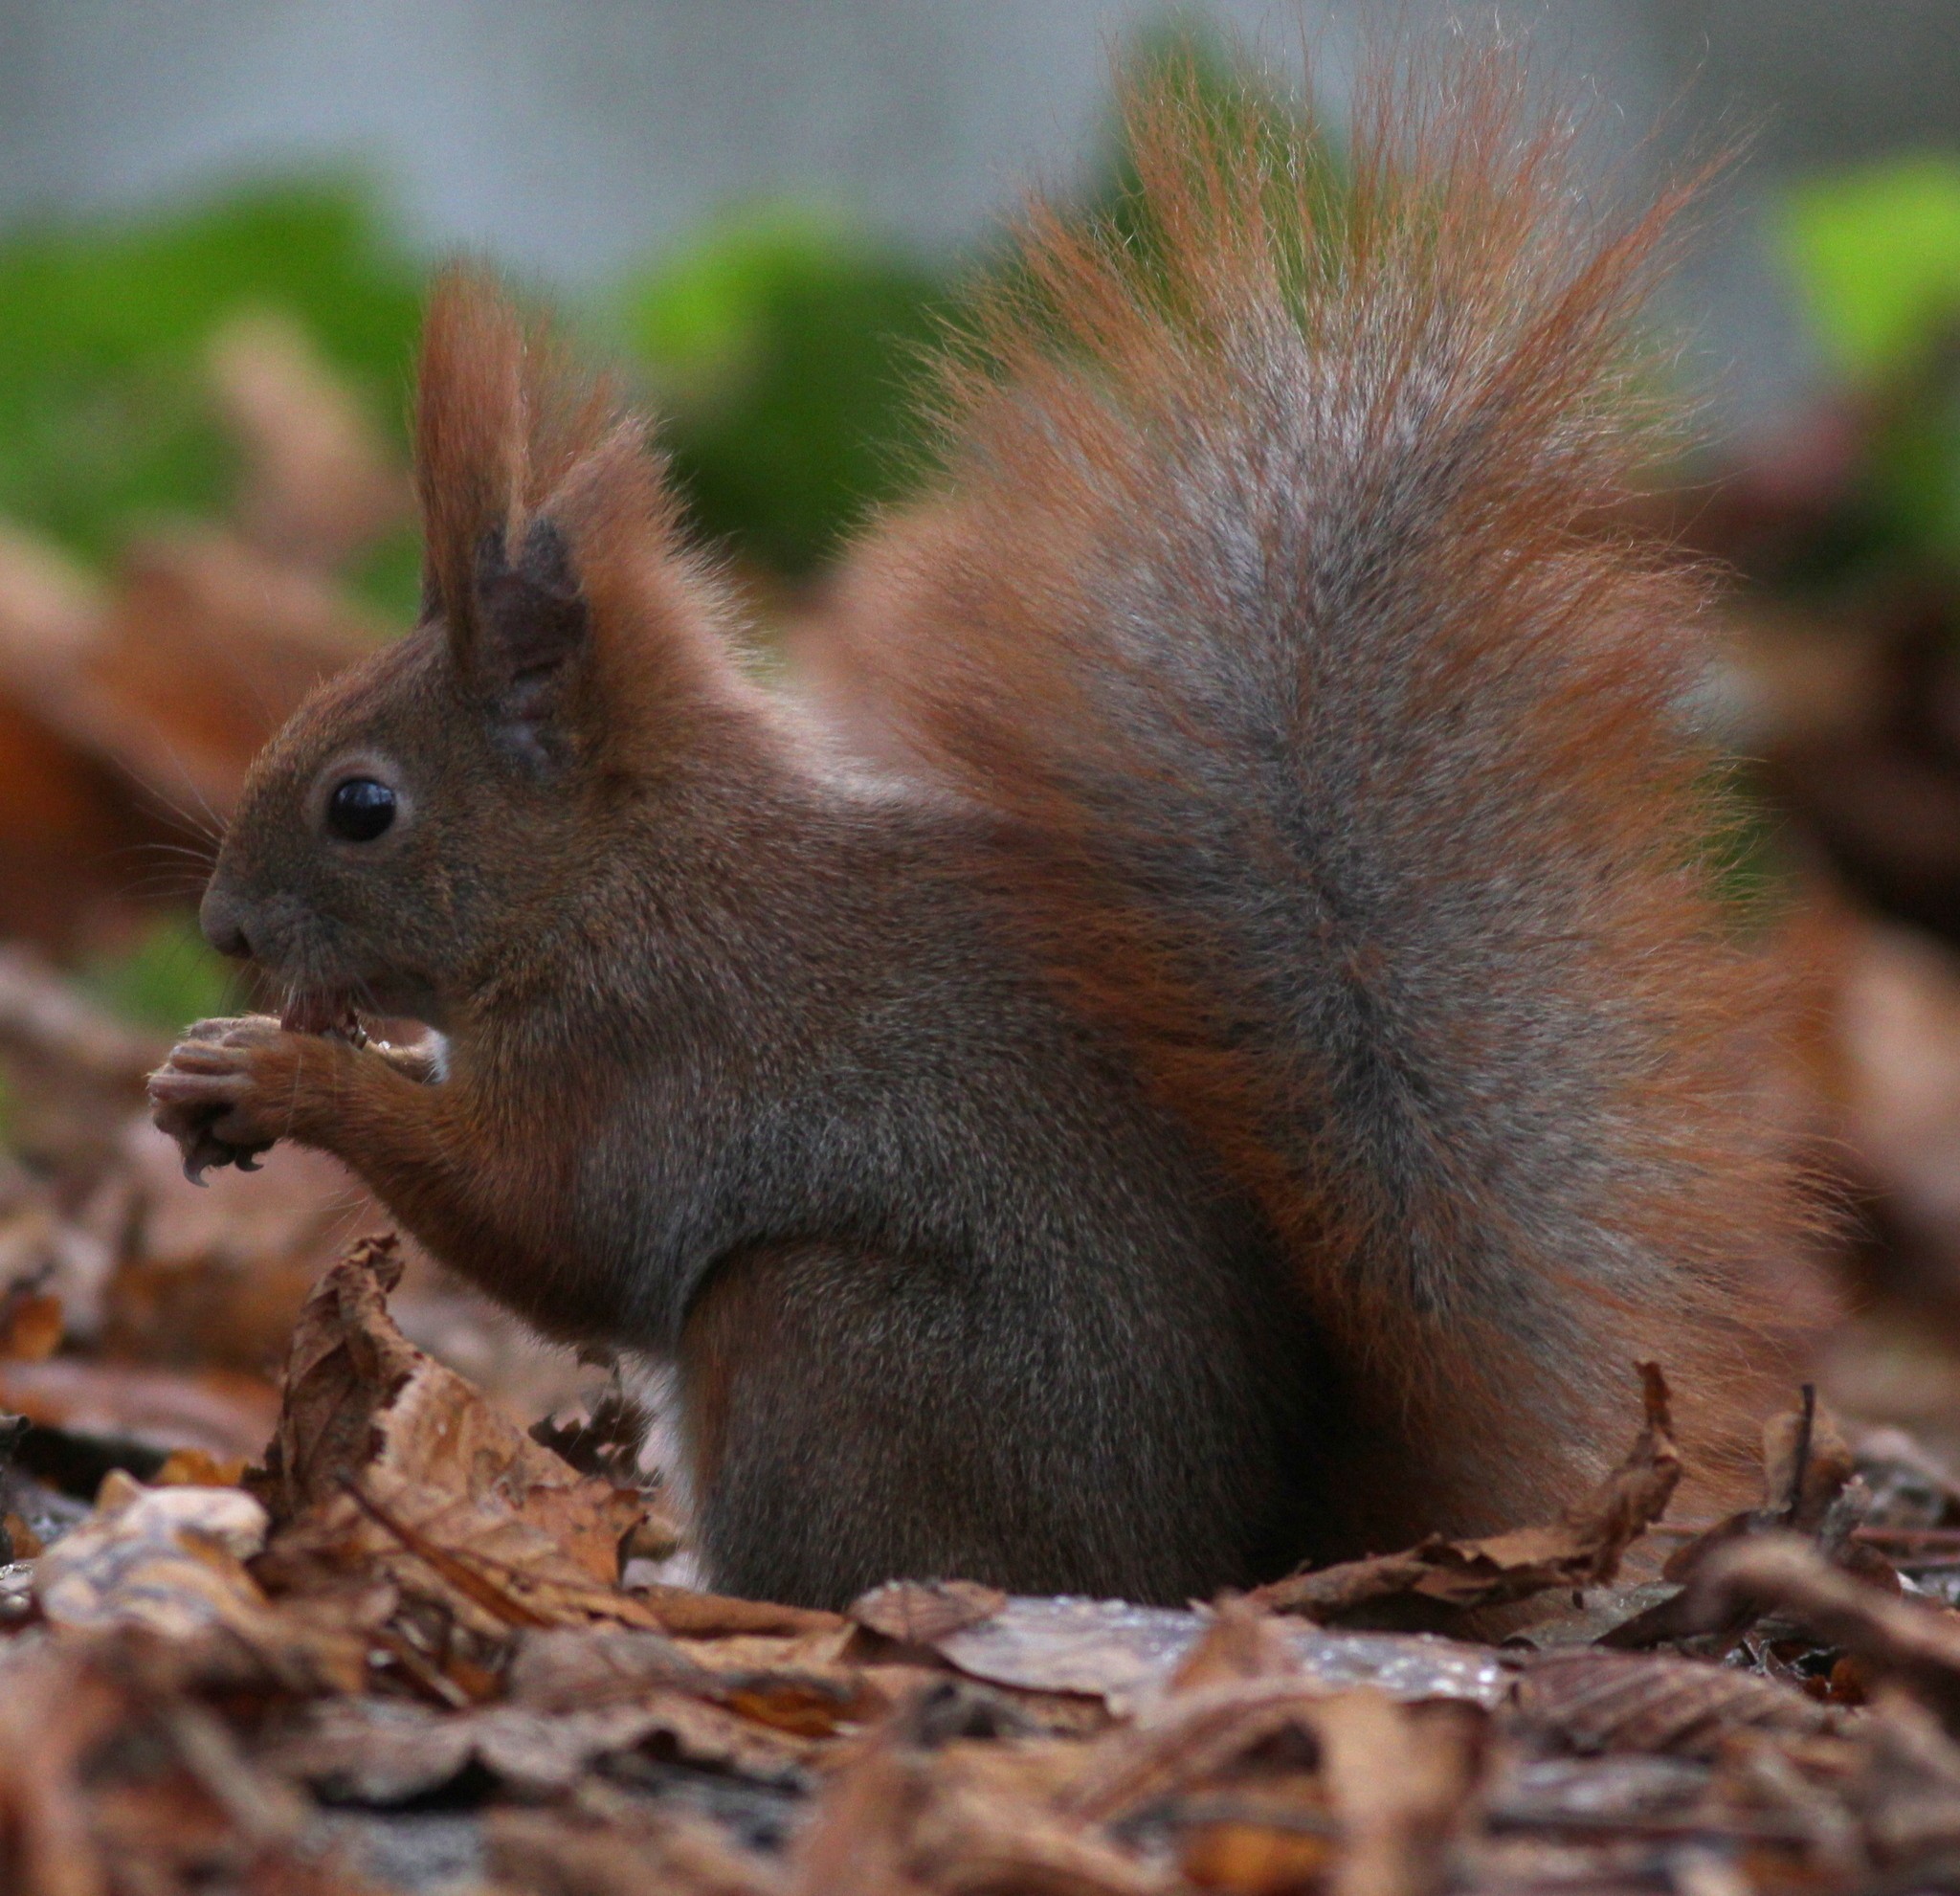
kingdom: Animalia
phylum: Chordata
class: Mammalia
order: Rodentia
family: Sciuridae
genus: Sciurus
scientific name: Sciurus vulgaris
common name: Eurasian red squirrel
